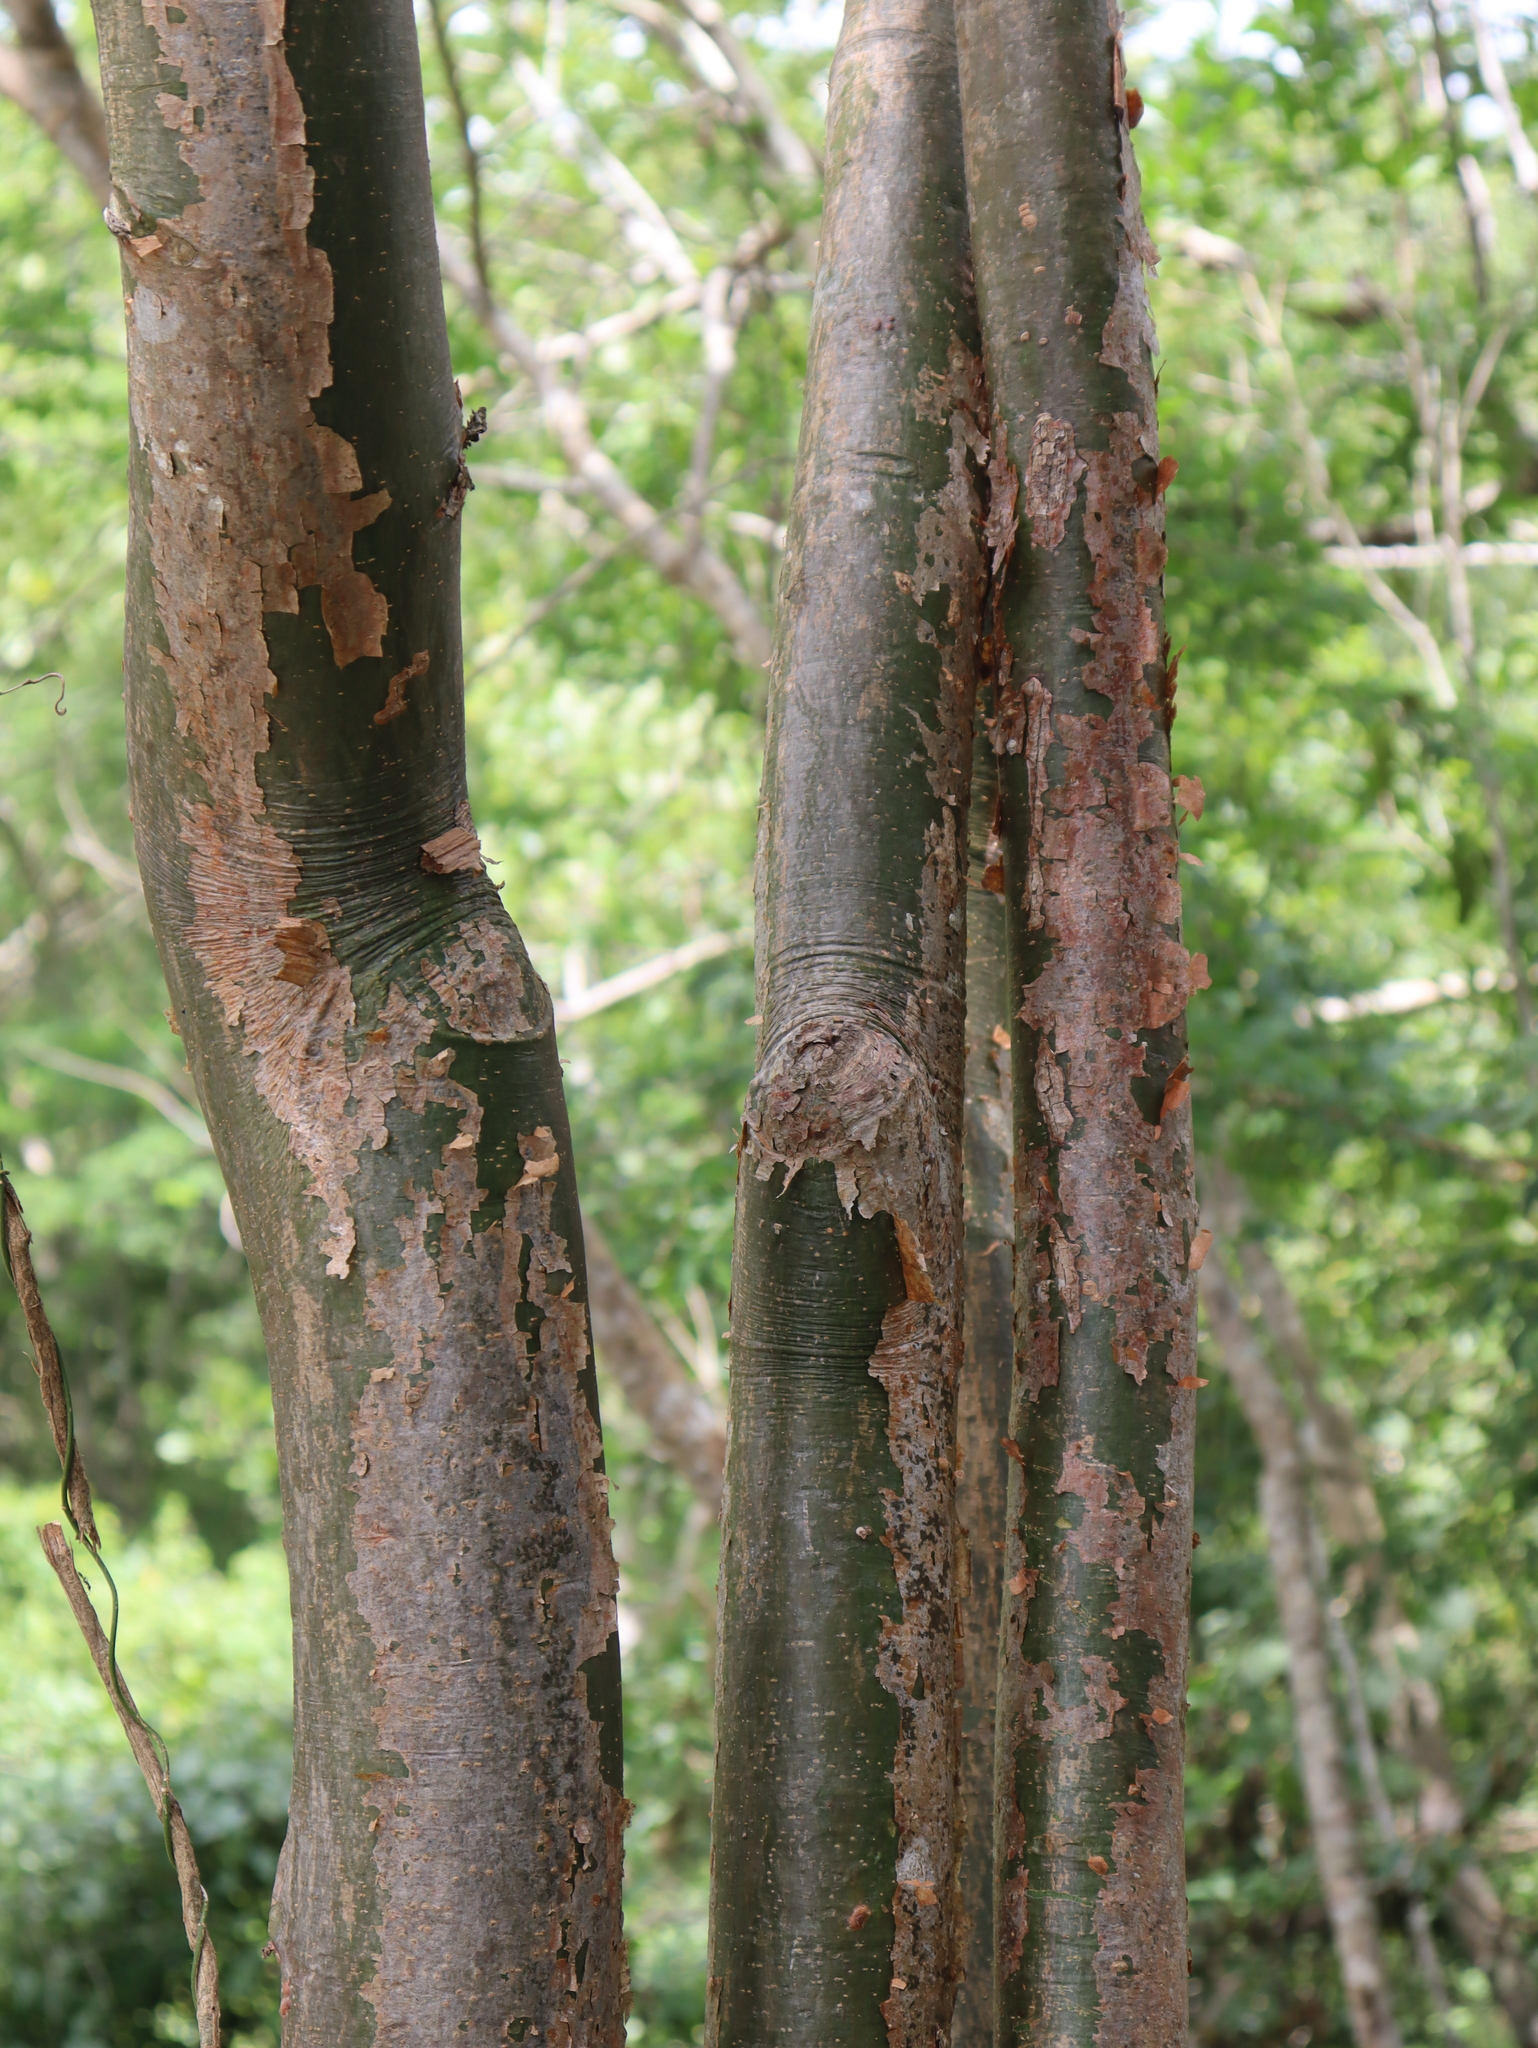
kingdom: Plantae
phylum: Tracheophyta
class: Magnoliopsida
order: Sapindales
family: Burseraceae
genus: Bursera
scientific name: Bursera simaruba
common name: Turpentine tree
